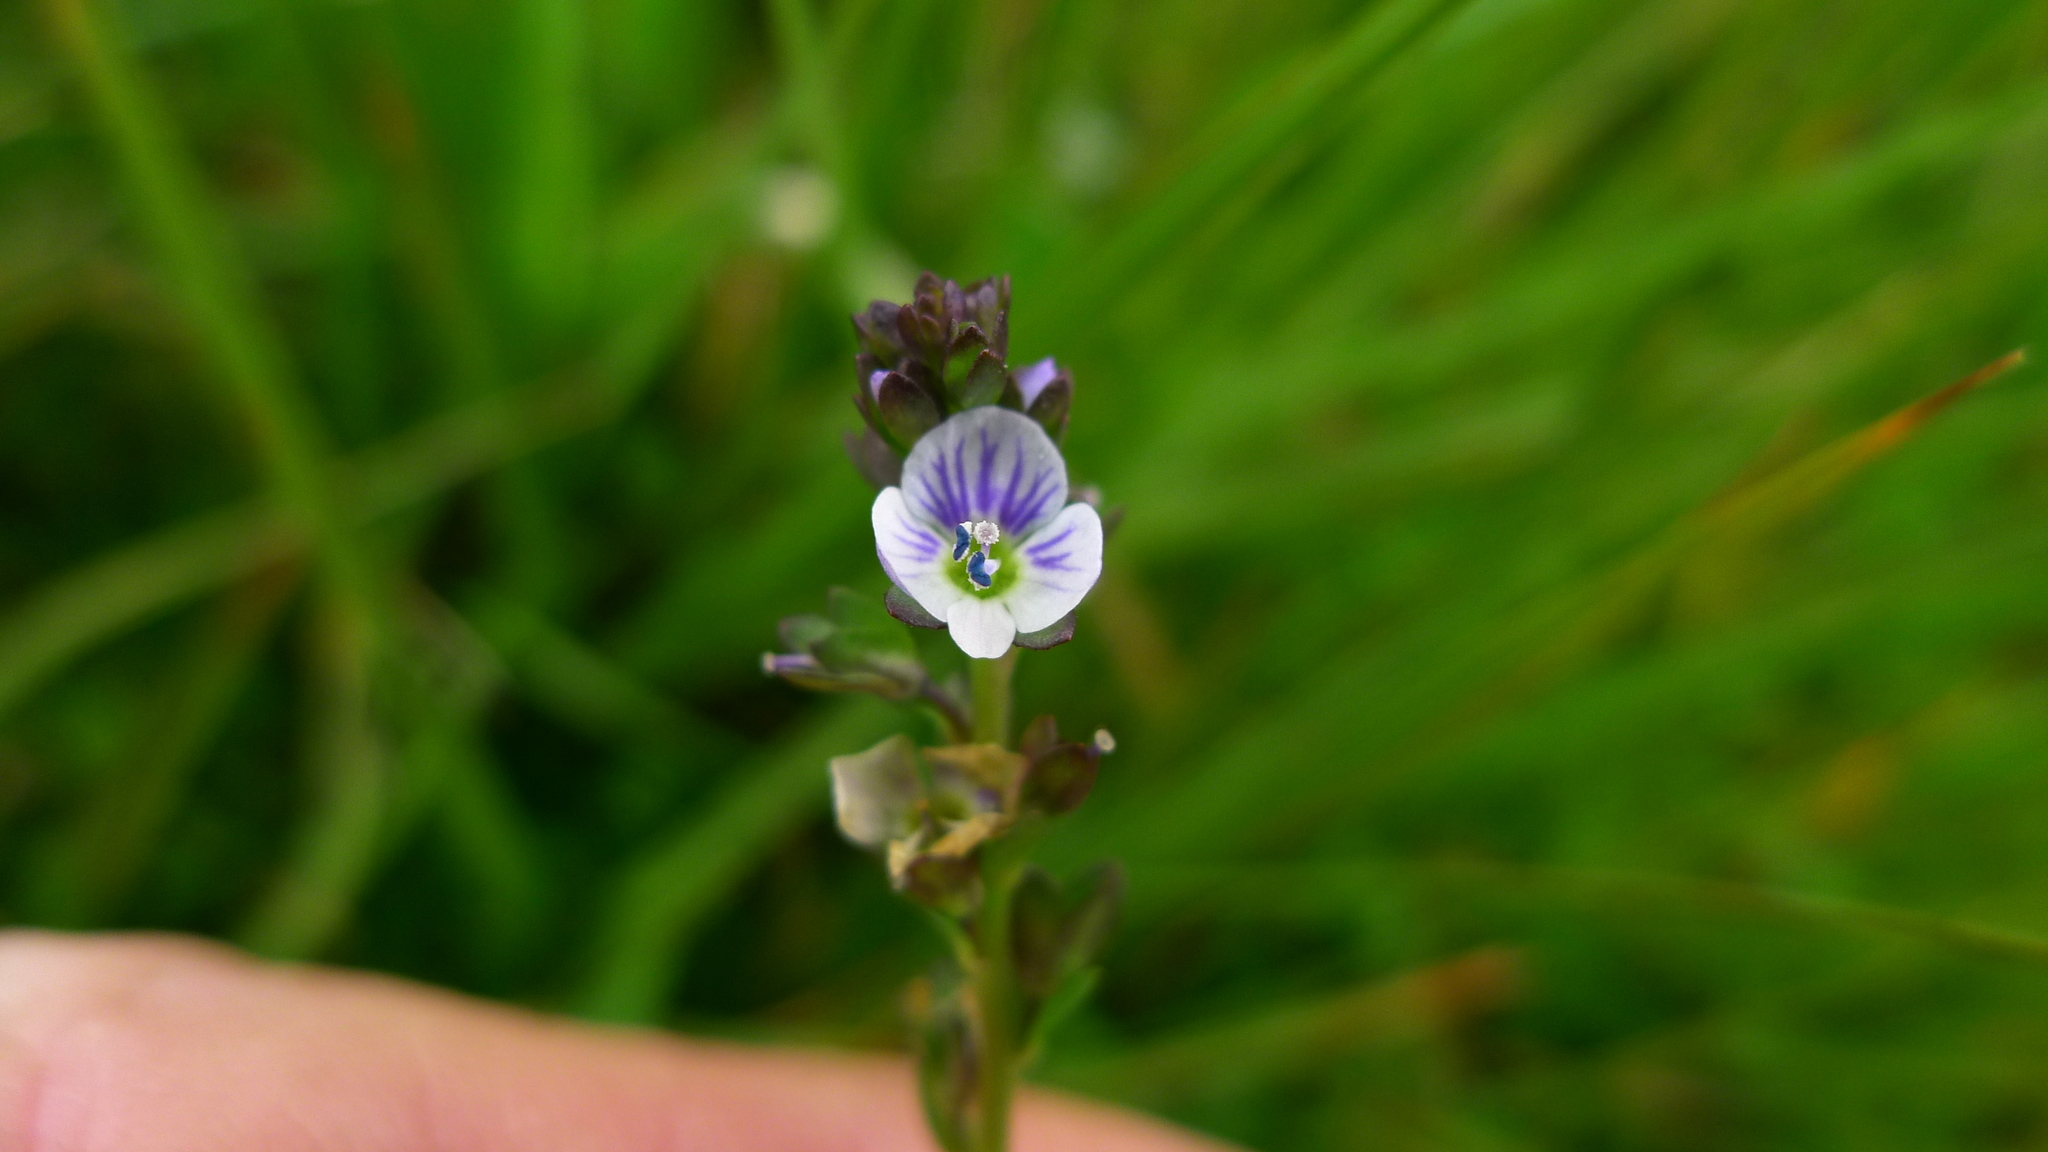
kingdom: Plantae
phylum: Tracheophyta
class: Magnoliopsida
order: Lamiales
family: Plantaginaceae
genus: Veronica
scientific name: Veronica serpyllifolia
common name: Thyme-leaved speedwell
